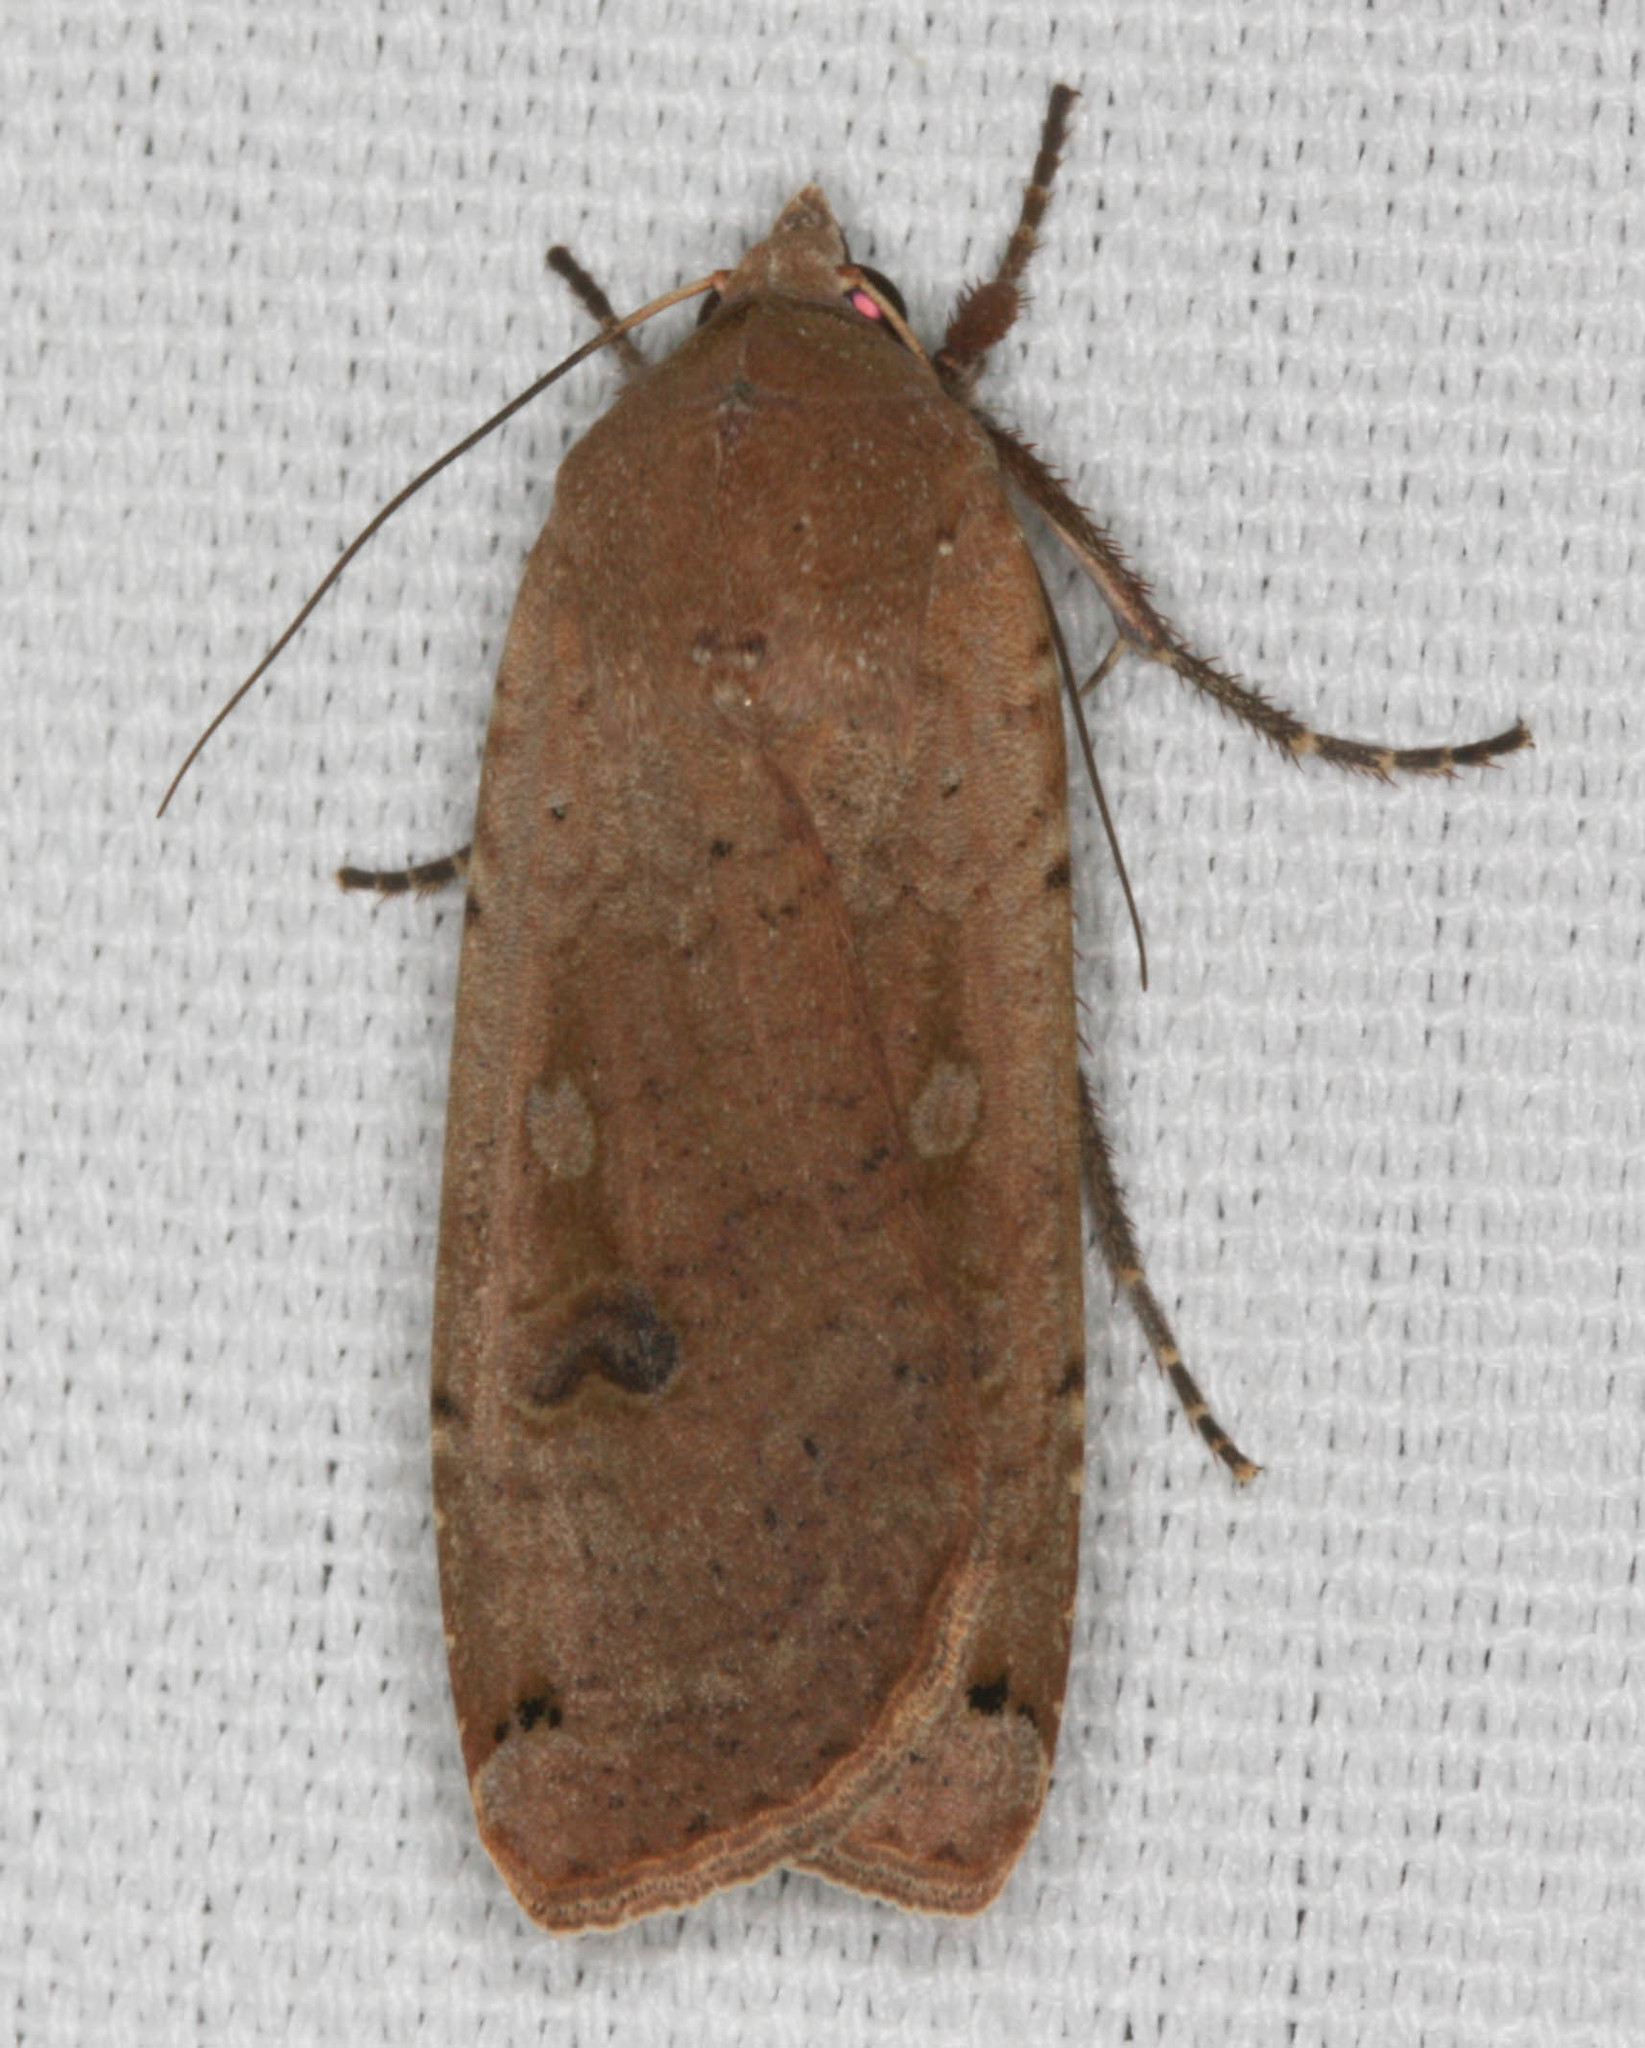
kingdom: Animalia
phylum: Arthropoda
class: Insecta
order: Lepidoptera
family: Noctuidae
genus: Noctua
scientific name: Noctua pronuba
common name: Large yellow underwing
